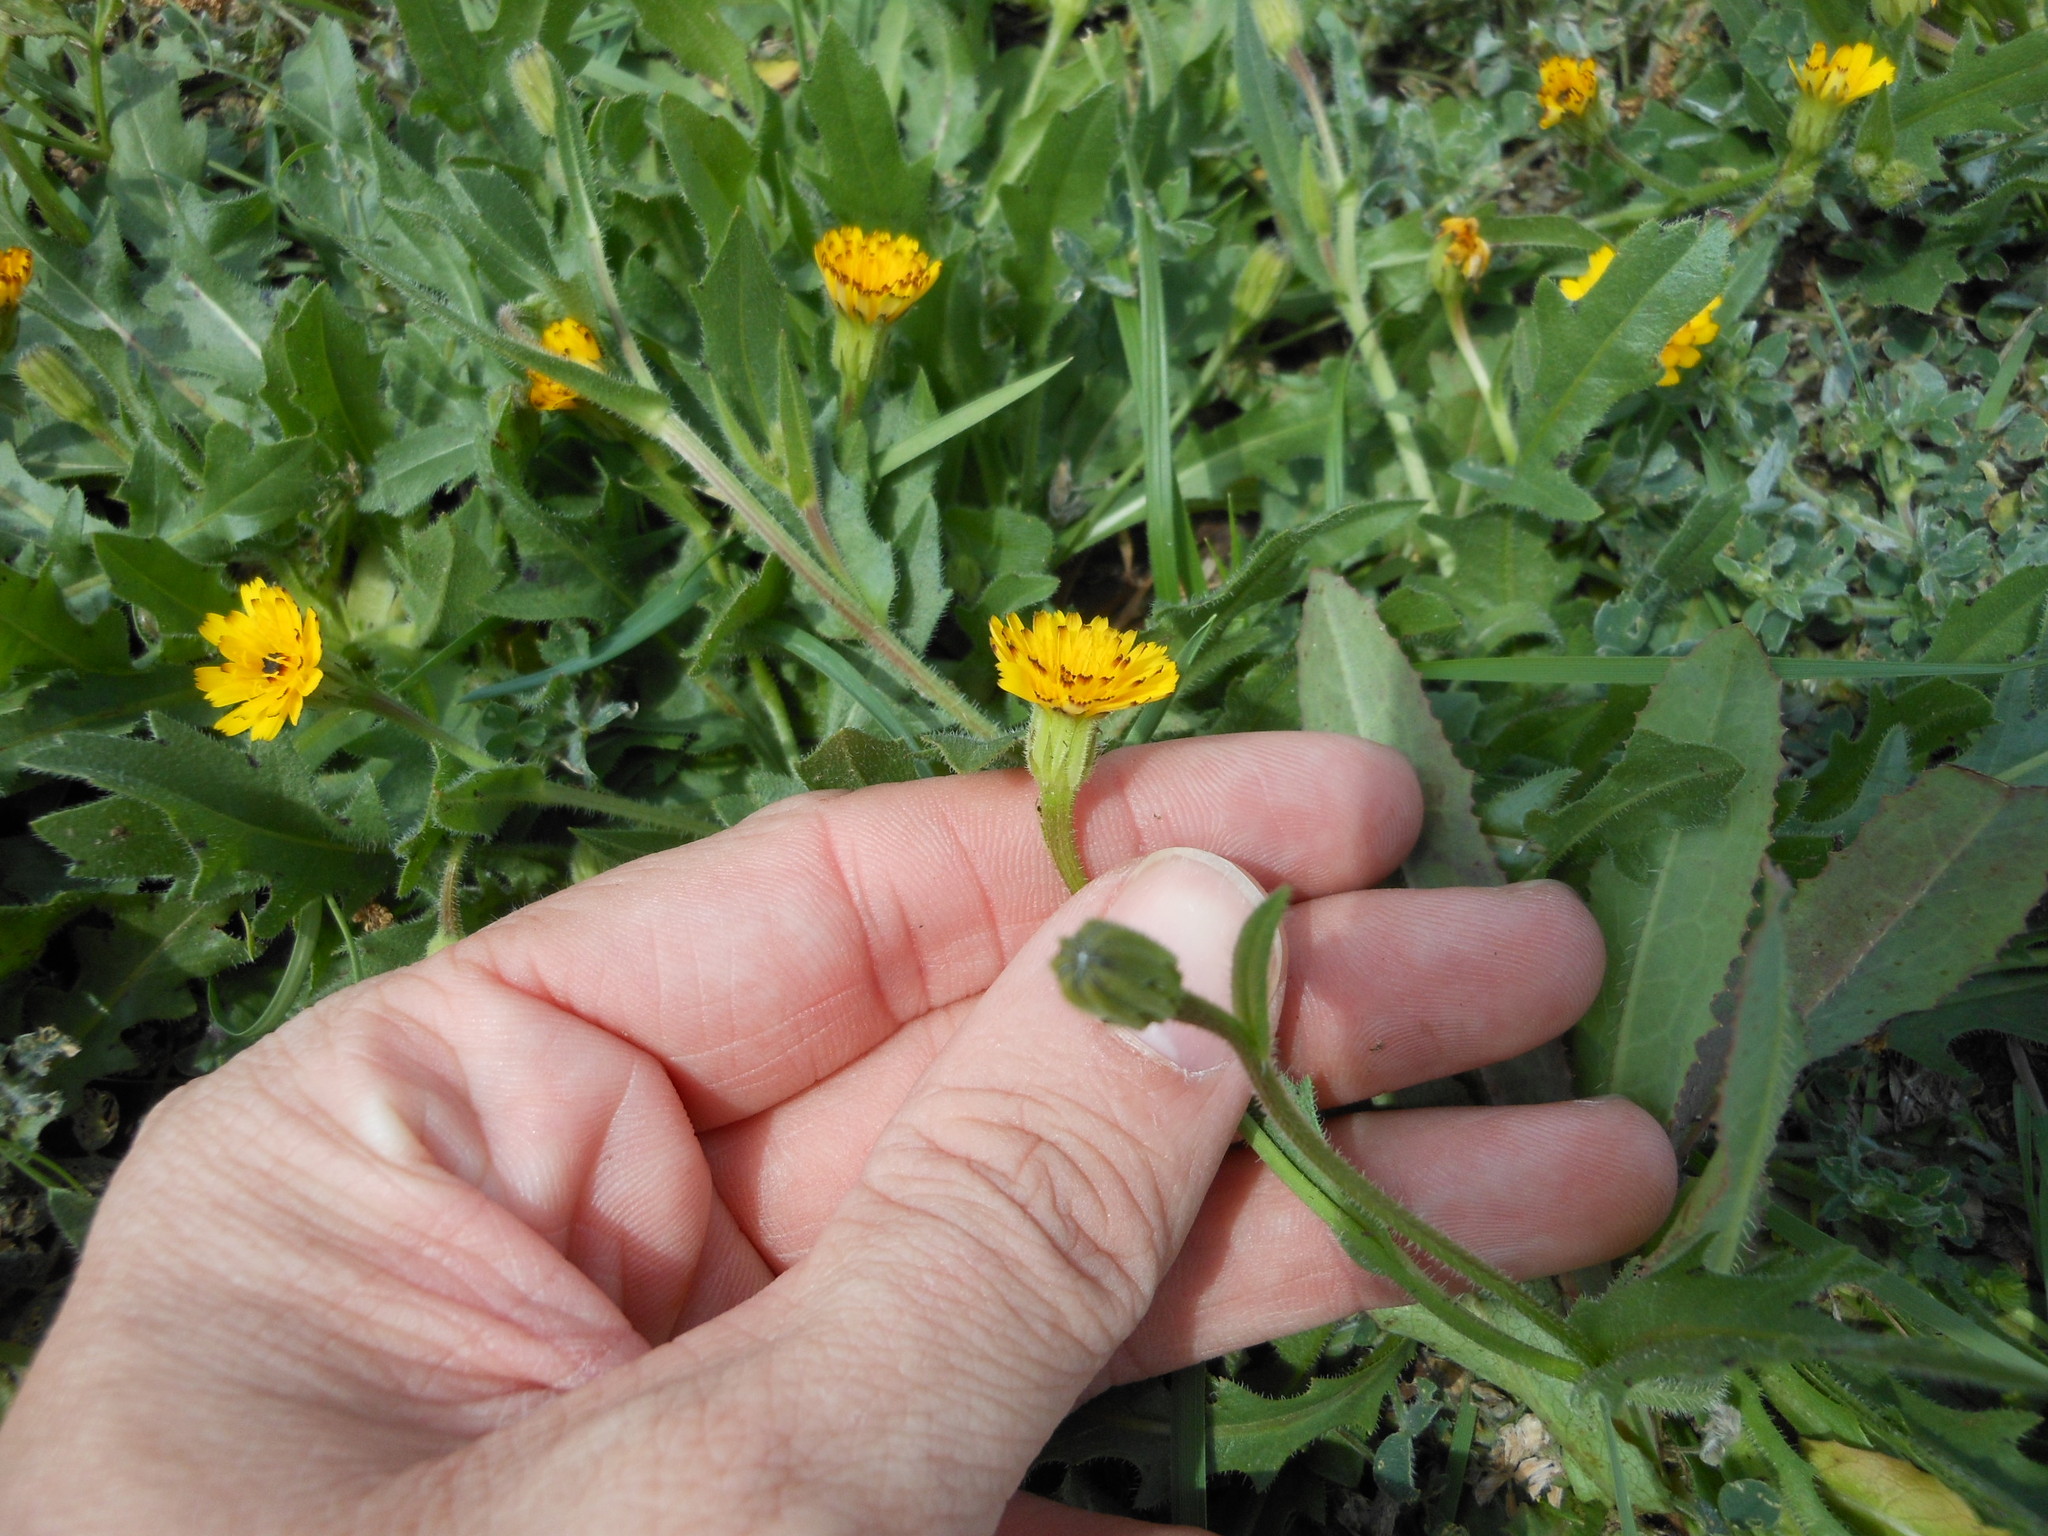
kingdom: Plantae
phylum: Tracheophyta
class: Magnoliopsida
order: Asterales
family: Asteraceae
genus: Hedypnois
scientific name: Hedypnois rhagadioloides
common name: Cretan weed
